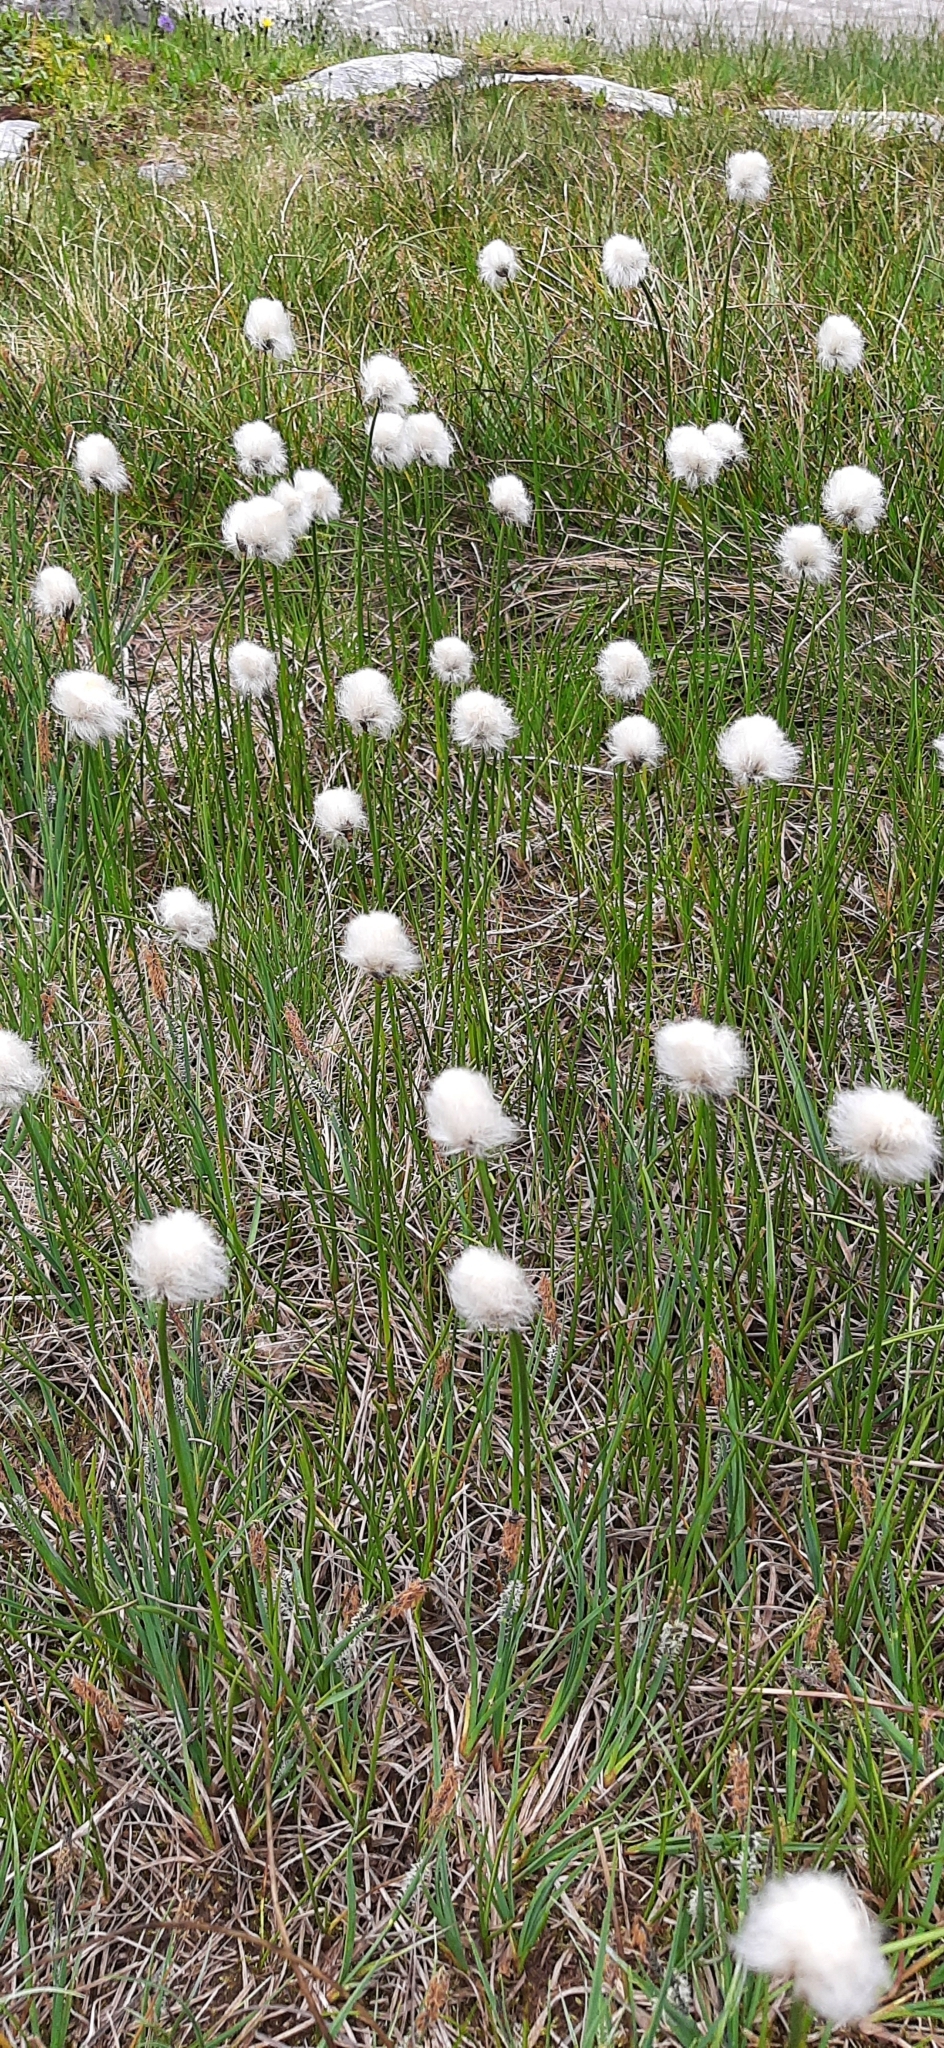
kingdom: Plantae
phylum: Tracheophyta
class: Liliopsida
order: Poales
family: Cyperaceae
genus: Eriophorum
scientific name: Eriophorum scheuchzeri
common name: Scheuchzer's cottongrass
